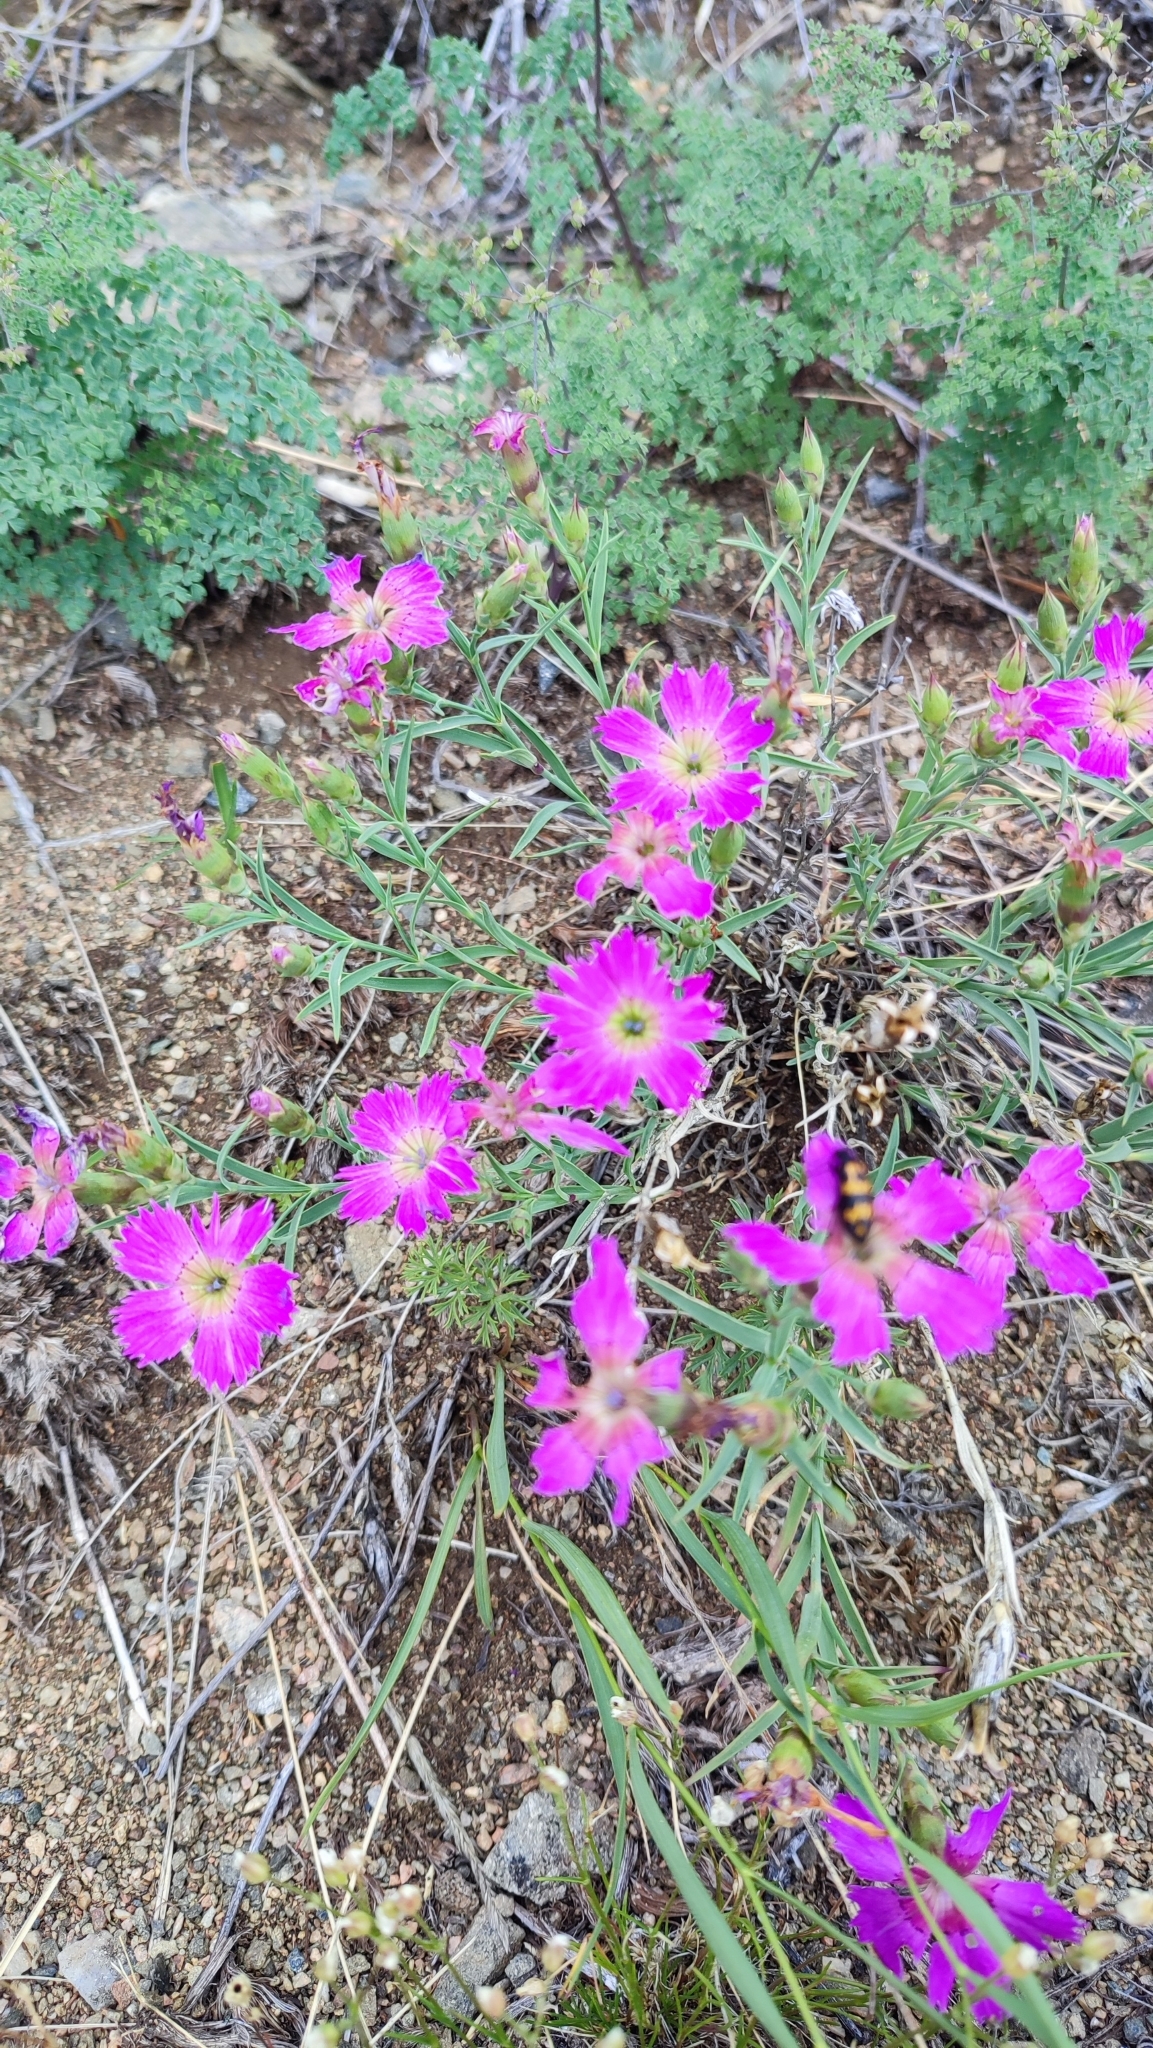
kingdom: Plantae
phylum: Tracheophyta
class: Magnoliopsida
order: Caryophyllales
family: Caryophyllaceae
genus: Dianthus
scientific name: Dianthus chinensis
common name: Rainbow pink
